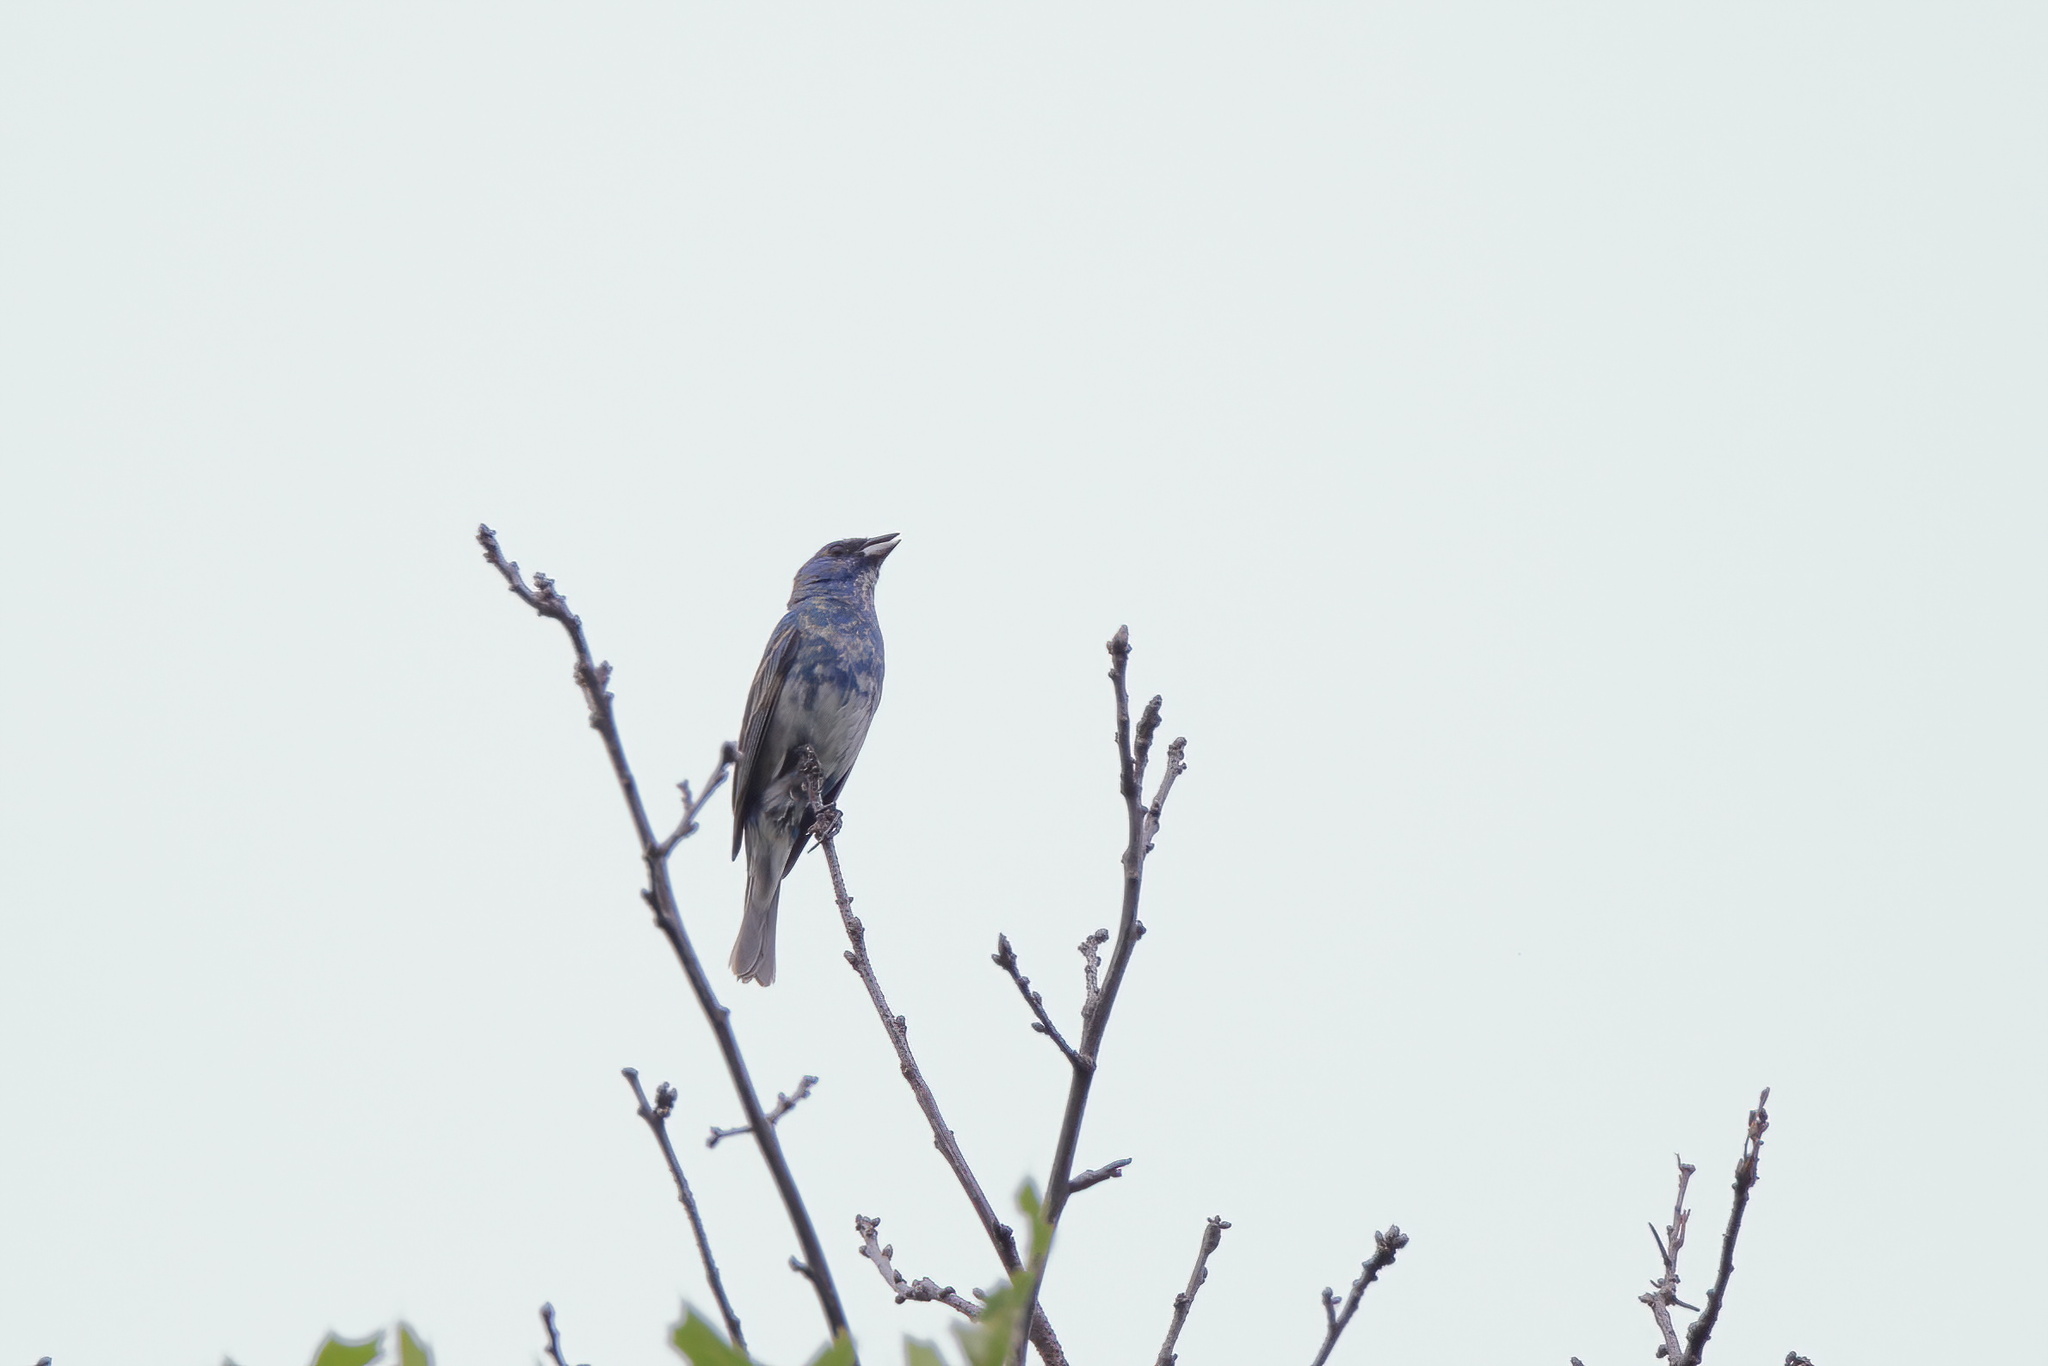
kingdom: Animalia
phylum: Chordata
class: Aves
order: Passeriformes
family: Cardinalidae
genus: Passerina
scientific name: Passerina cyanea
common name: Indigo bunting
